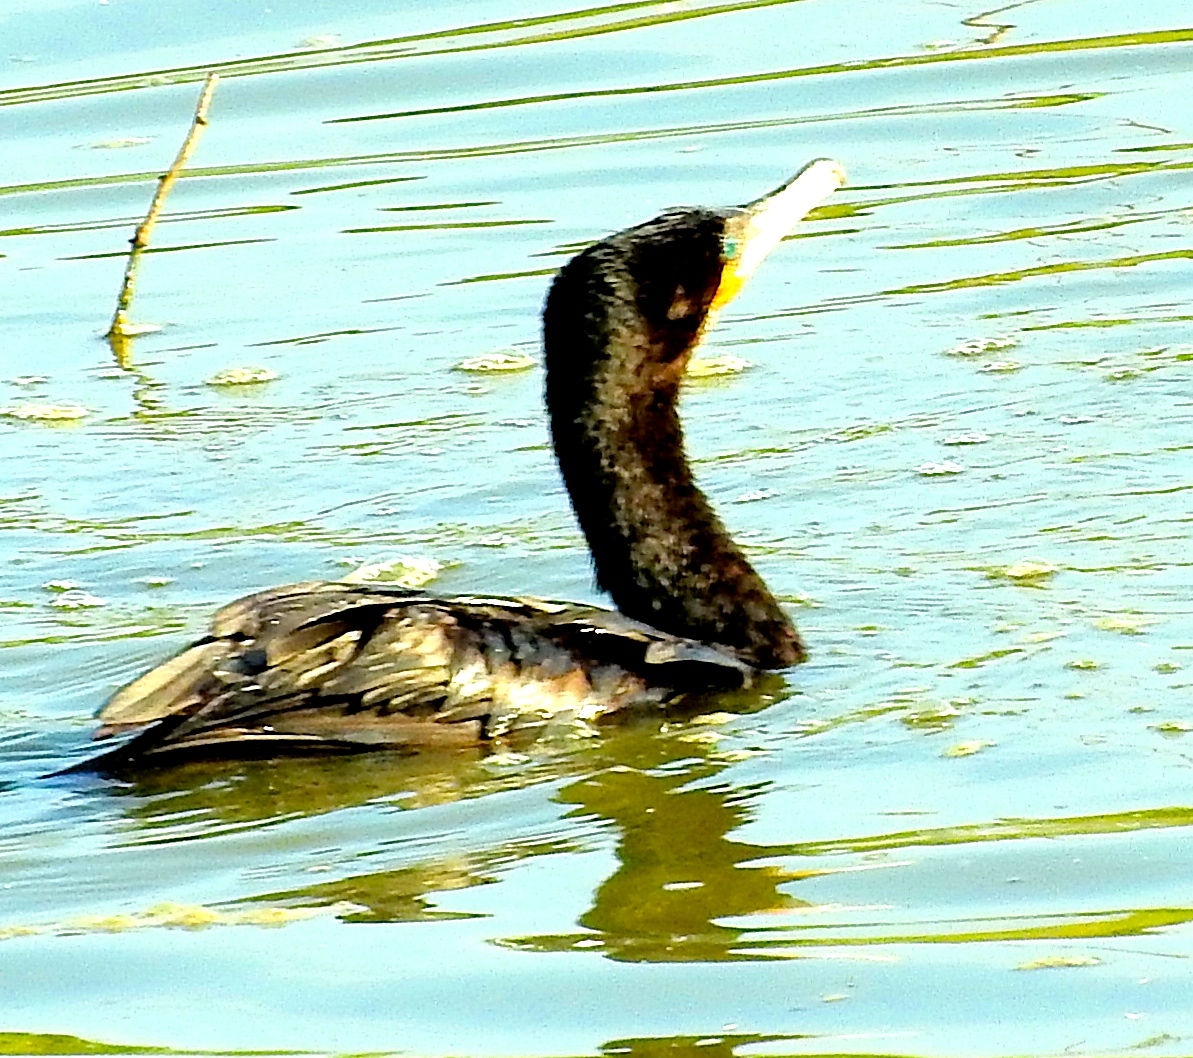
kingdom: Animalia
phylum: Chordata
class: Aves
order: Suliformes
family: Phalacrocoracidae
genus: Phalacrocorax
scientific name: Phalacrocorax brasilianus
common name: Neotropic cormorant
